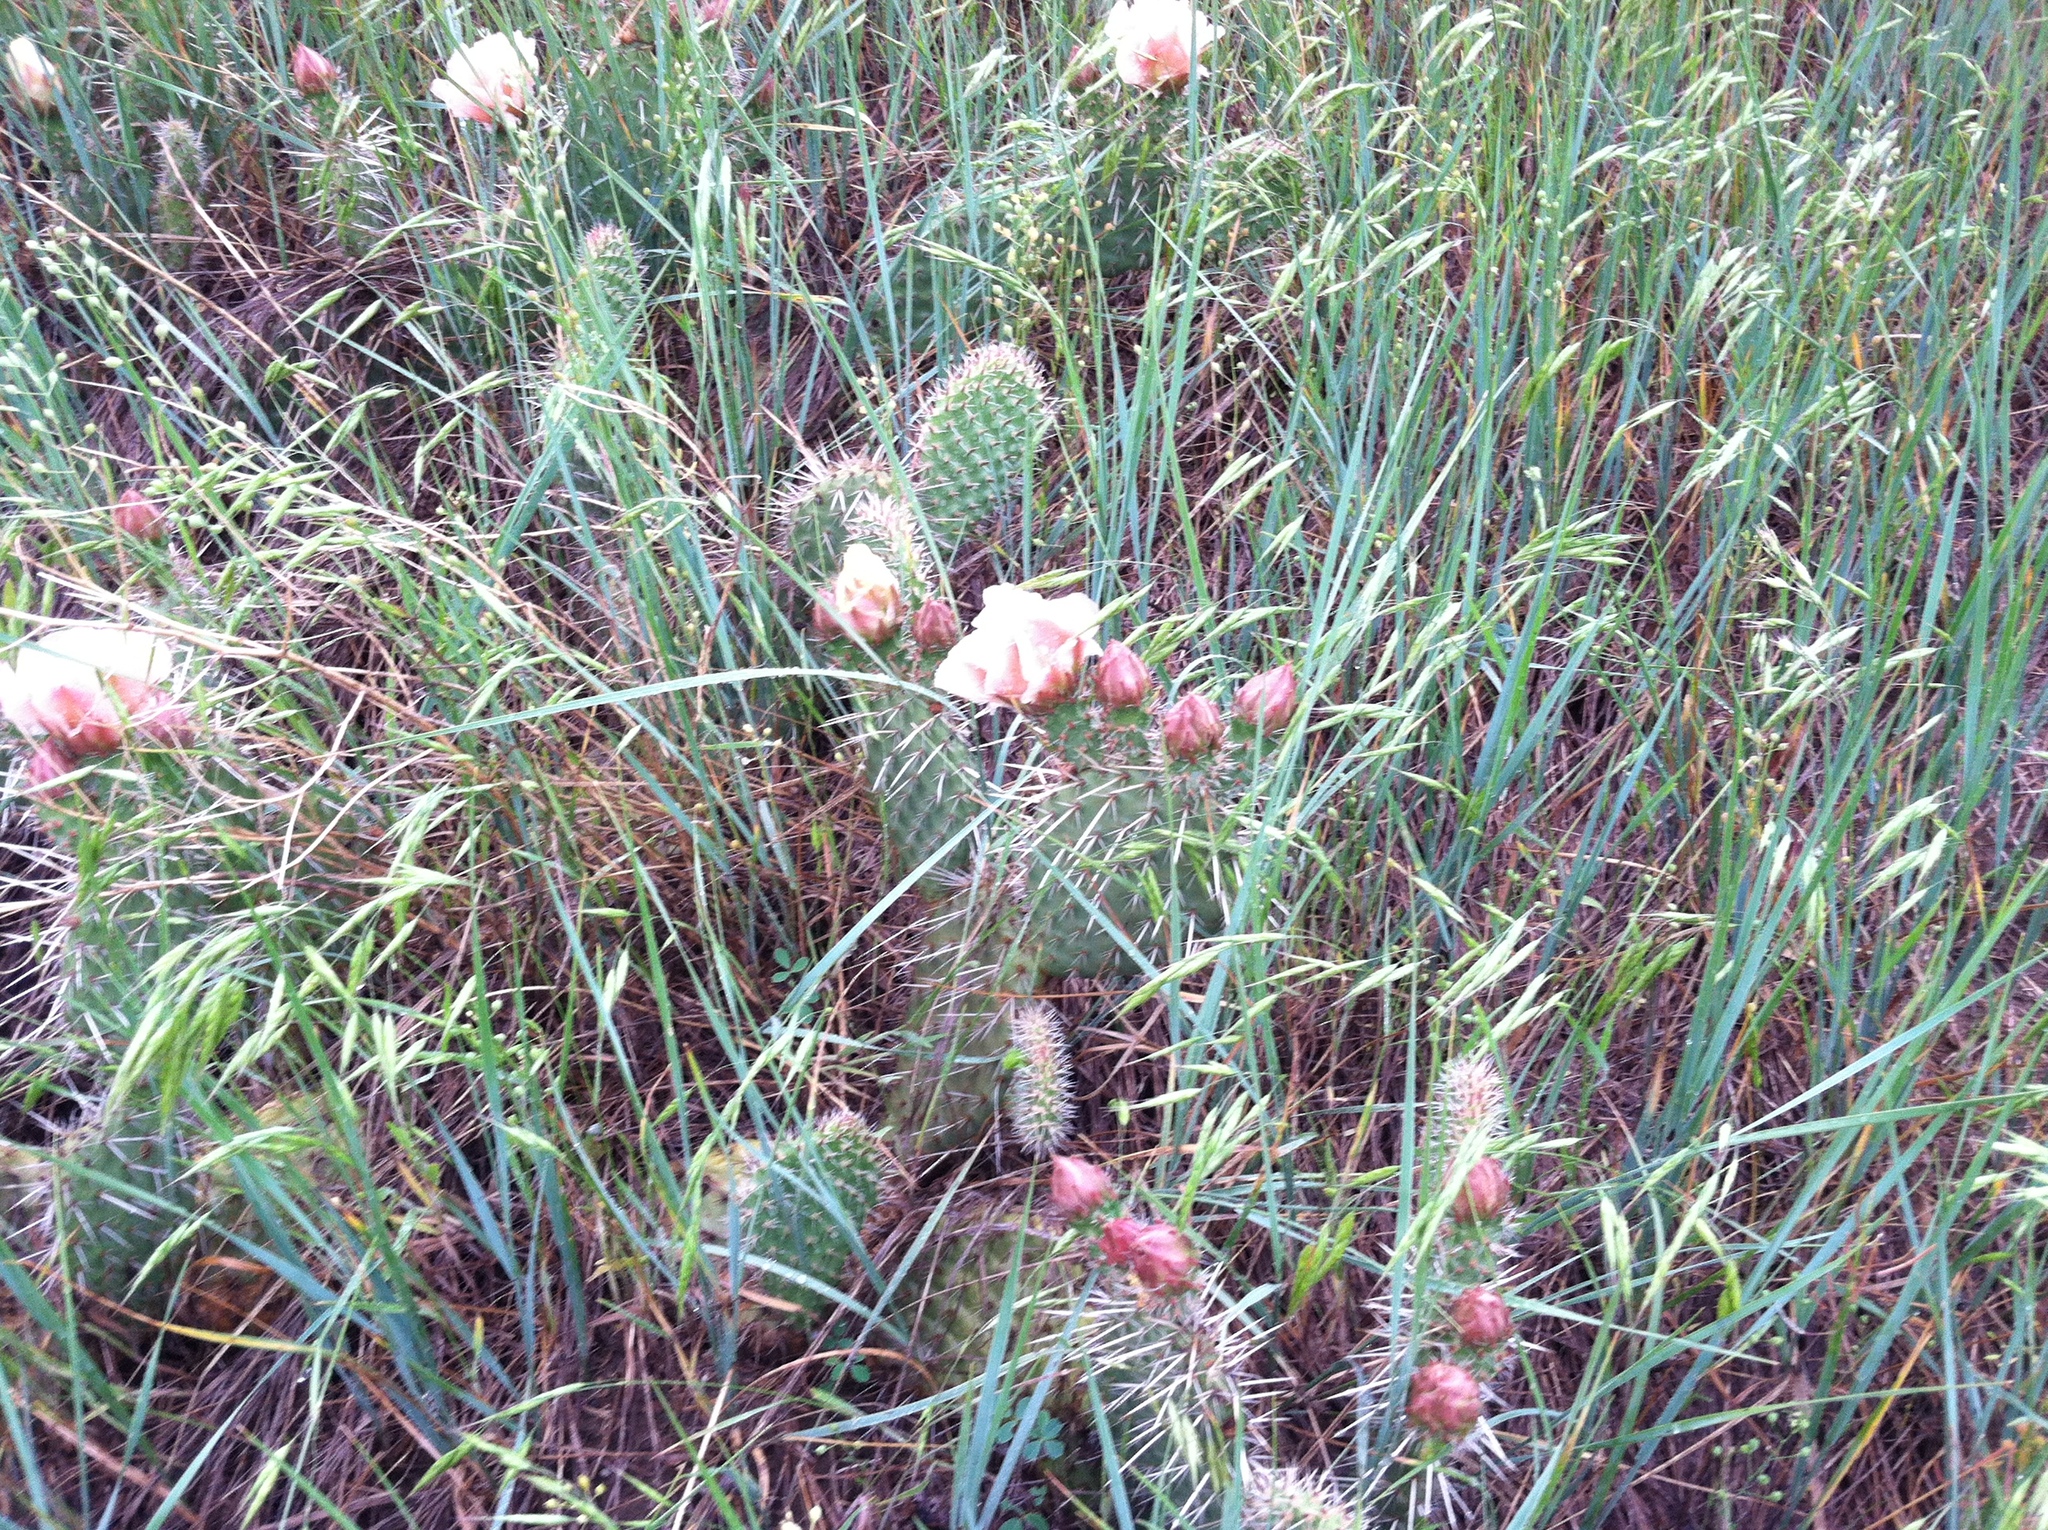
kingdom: Plantae
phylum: Tracheophyta
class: Magnoliopsida
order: Caryophyllales
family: Cactaceae
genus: Opuntia
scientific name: Opuntia polyacantha
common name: Plains prickly-pear
